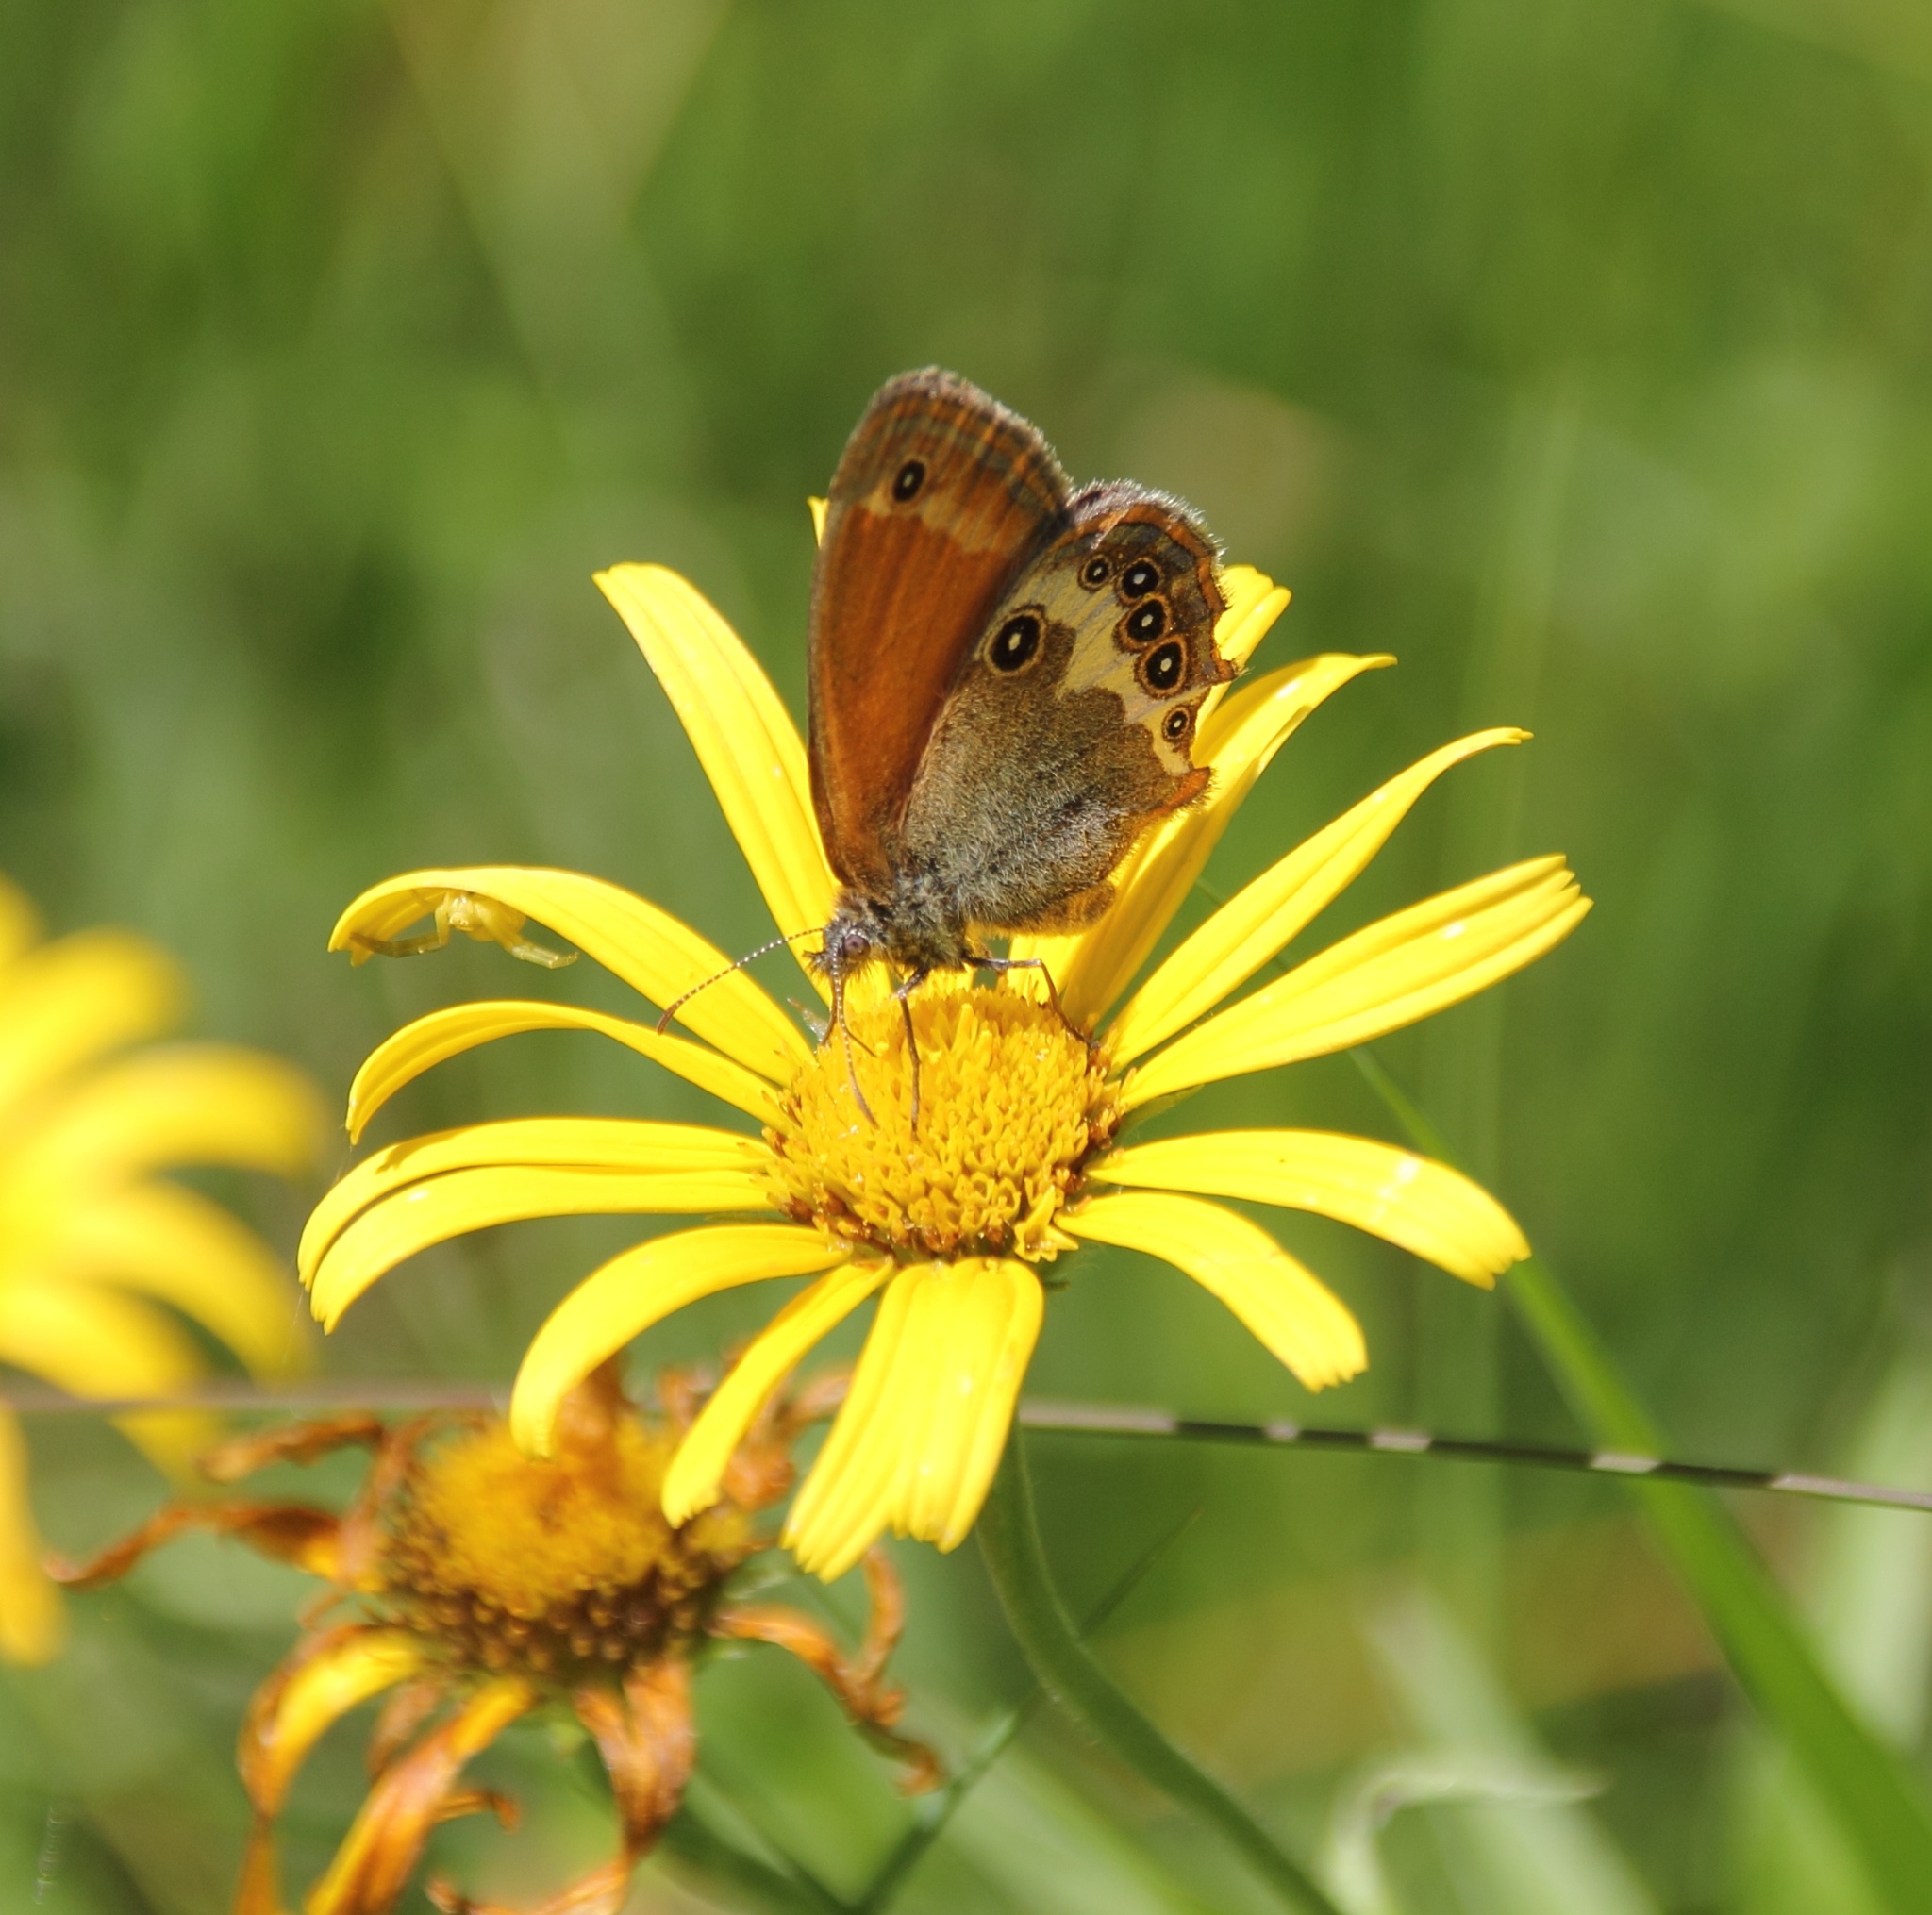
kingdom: Animalia
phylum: Arthropoda
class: Insecta
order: Lepidoptera
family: Nymphalidae
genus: Coenonympha
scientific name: Coenonympha arcania
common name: Pearly heath
